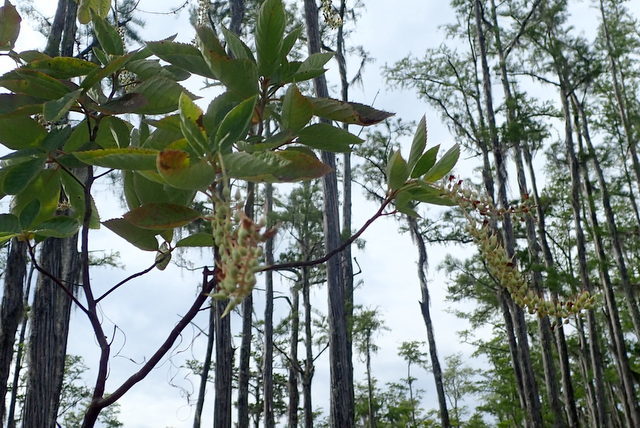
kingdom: Plantae
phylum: Tracheophyta
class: Magnoliopsida
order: Saxifragales
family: Iteaceae
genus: Itea
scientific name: Itea virginica
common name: Sweetspire
